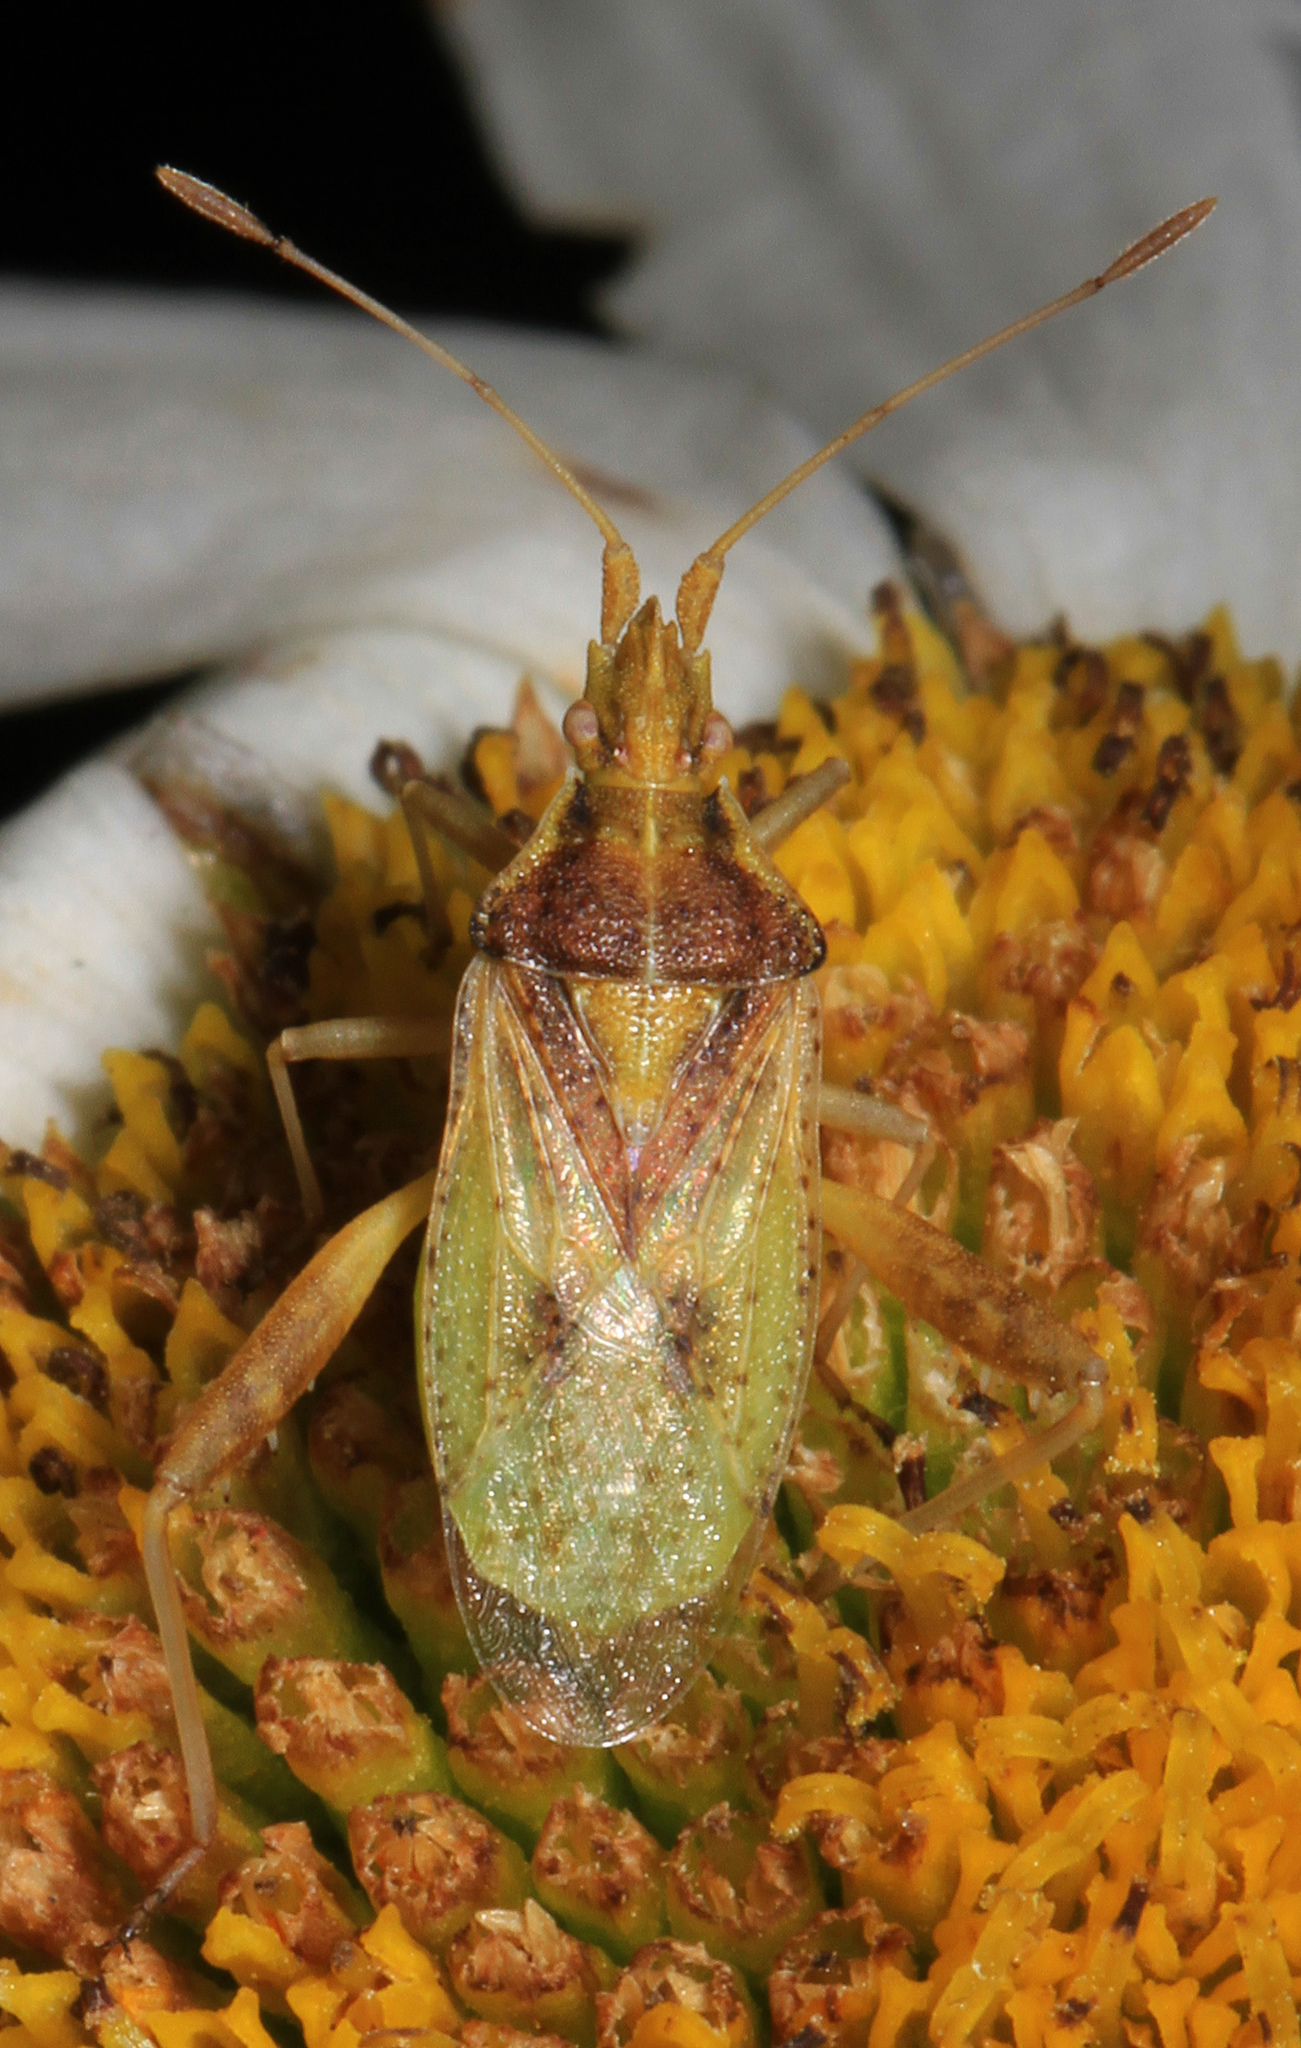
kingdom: Animalia
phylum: Arthropoda
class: Insecta
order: Hemiptera
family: Rhopalidae
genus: Harmostes
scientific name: Harmostes reflexulus
